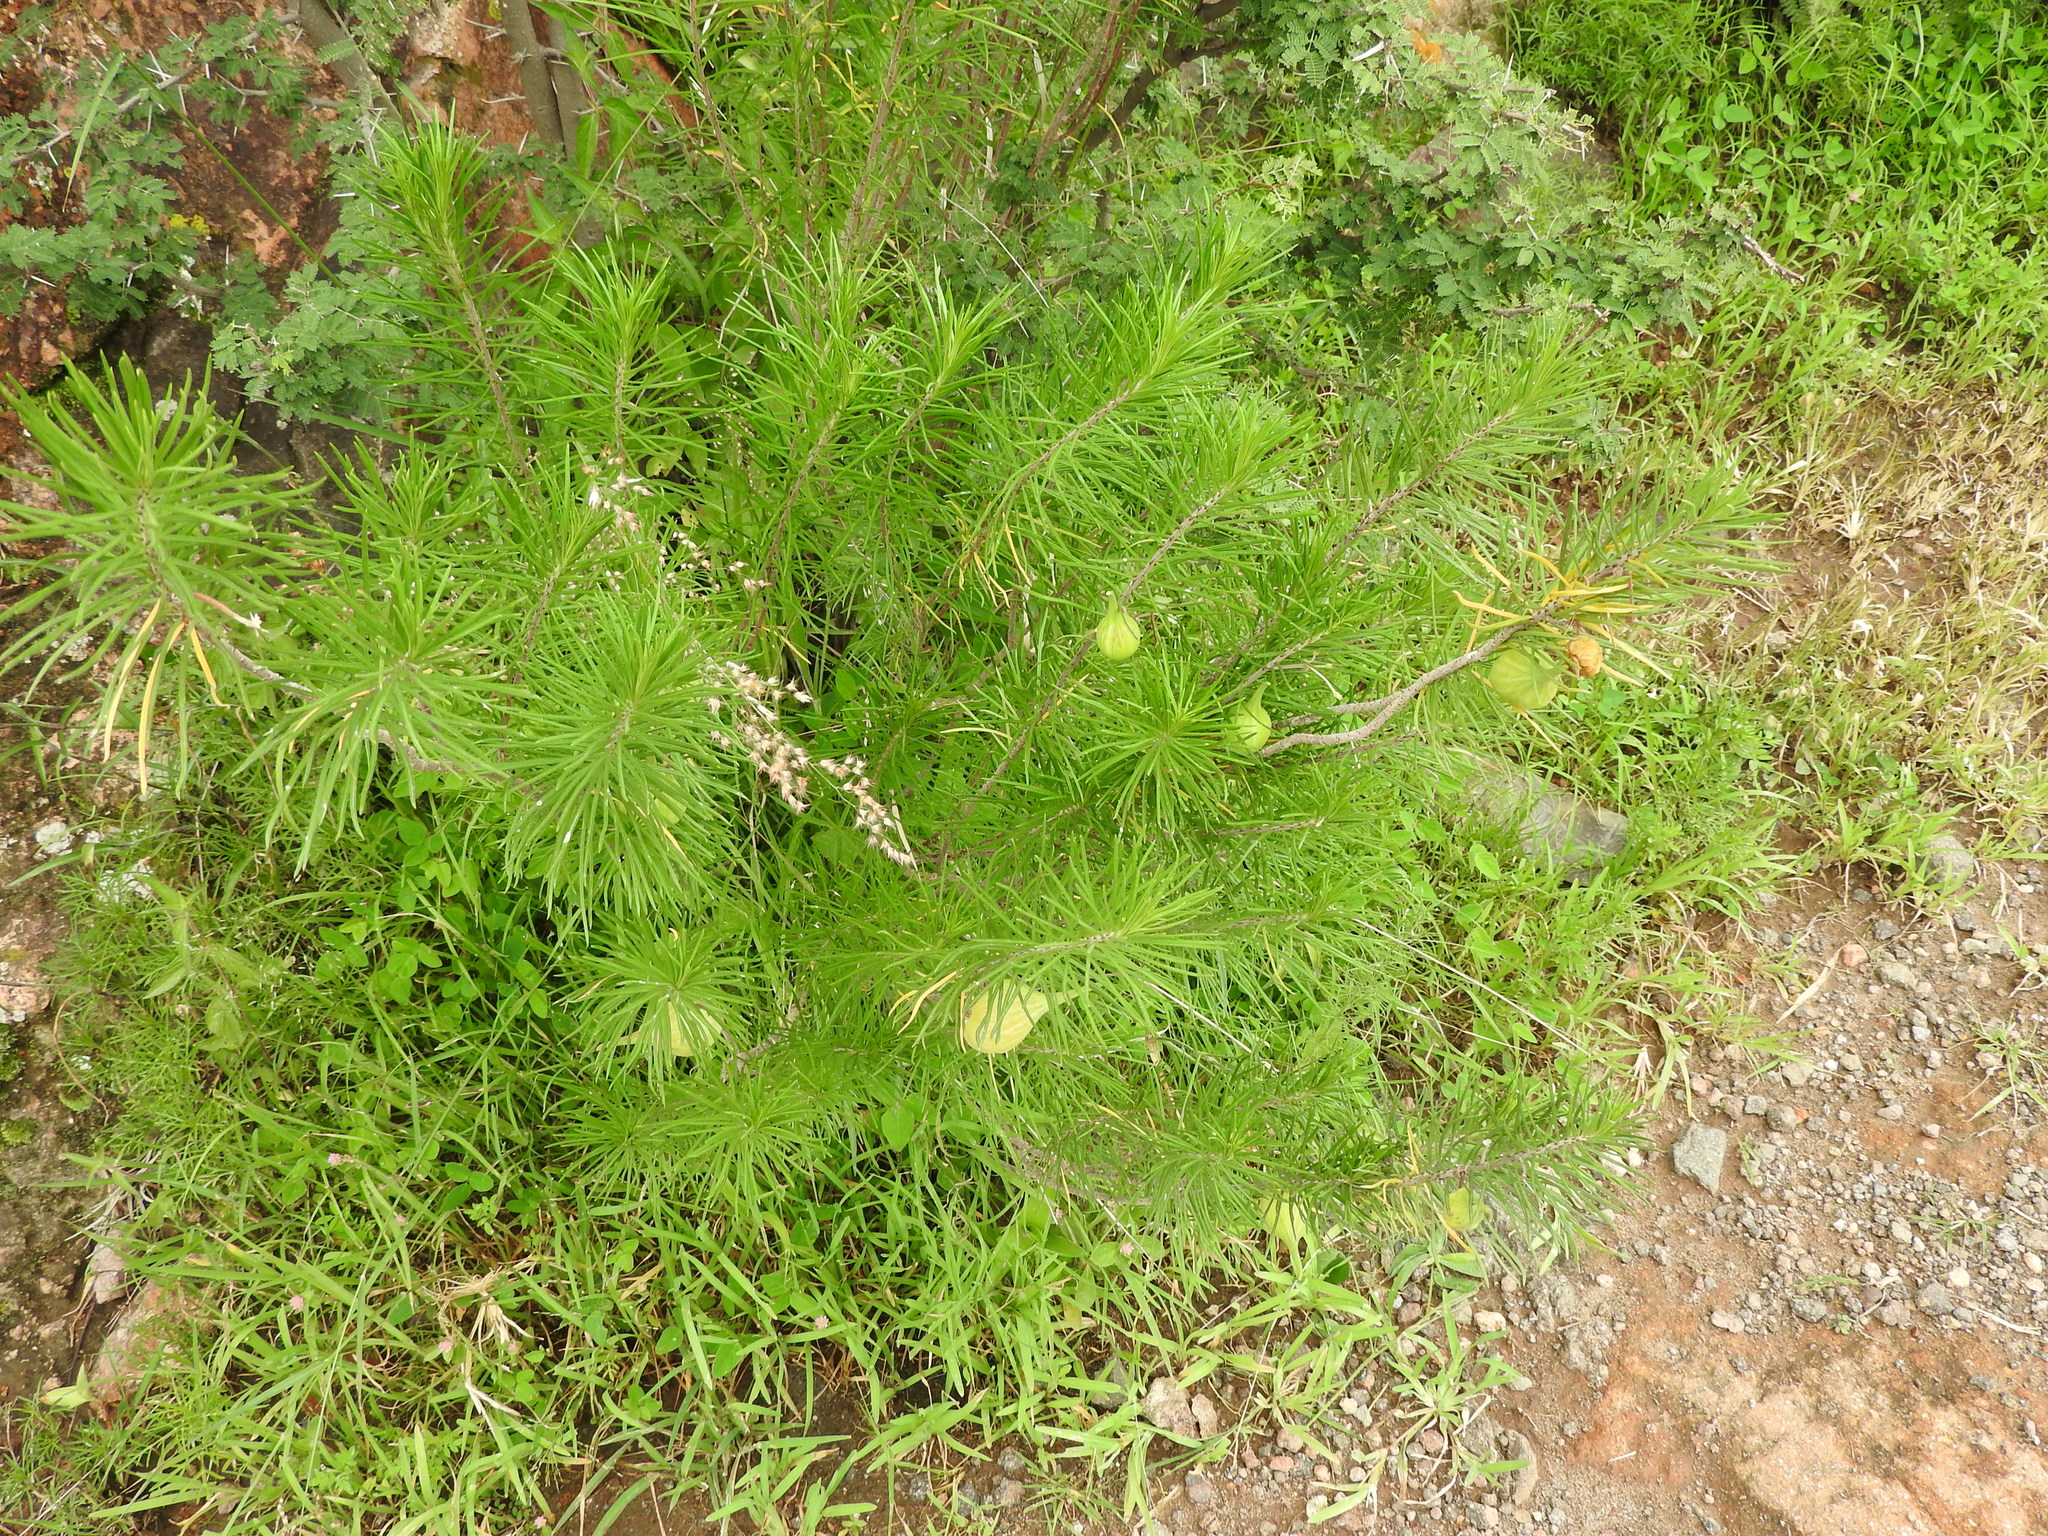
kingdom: Plantae
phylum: Tracheophyta
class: Magnoliopsida
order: Gentianales
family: Apocynaceae
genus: Asclepias
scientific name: Asclepias linaria
